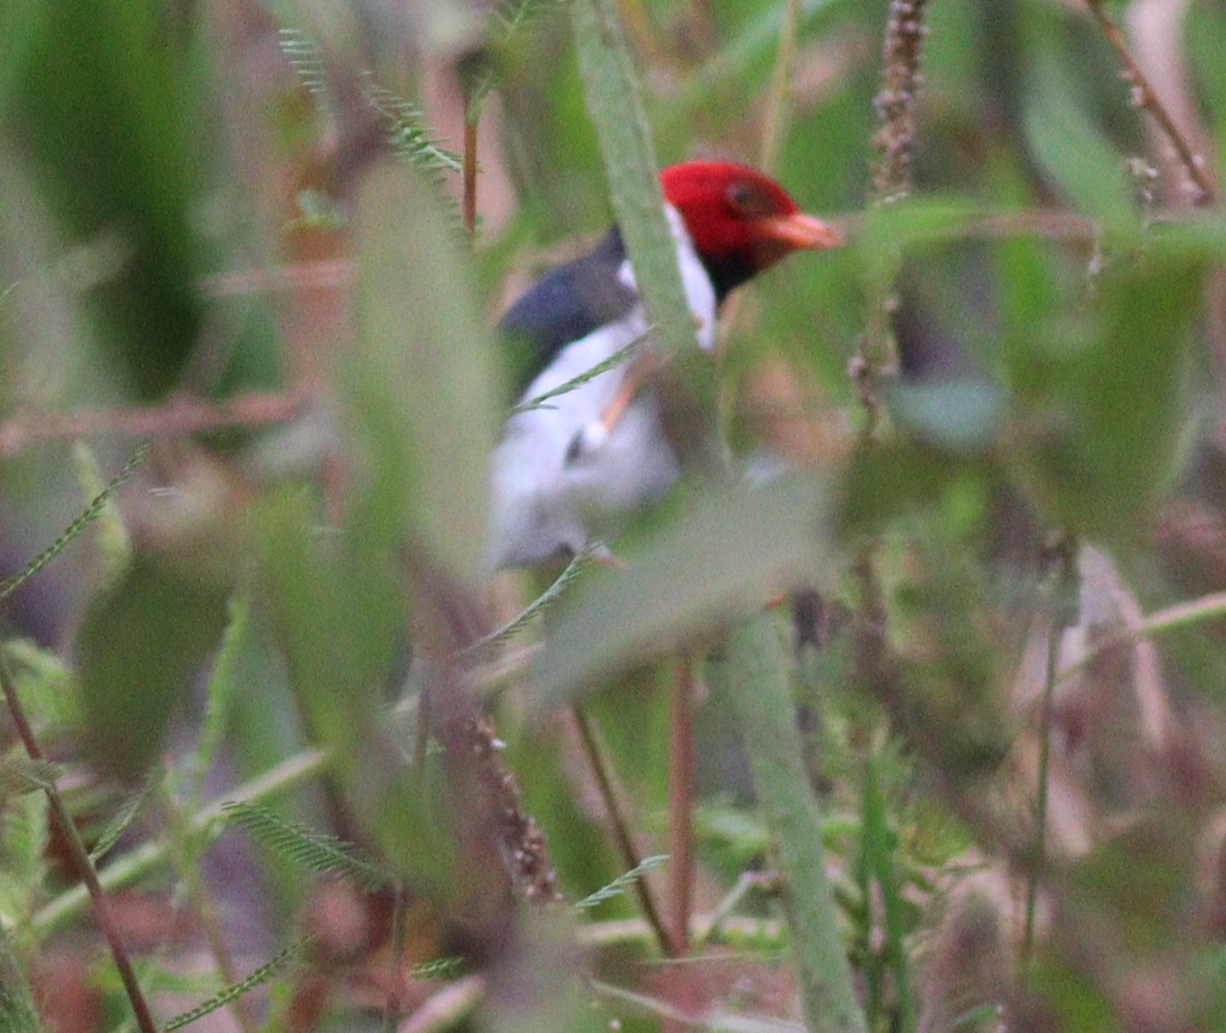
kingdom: Animalia
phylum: Chordata
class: Aves
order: Passeriformes
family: Thraupidae
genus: Paroaria
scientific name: Paroaria capitata
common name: Yellow-billed cardinal
